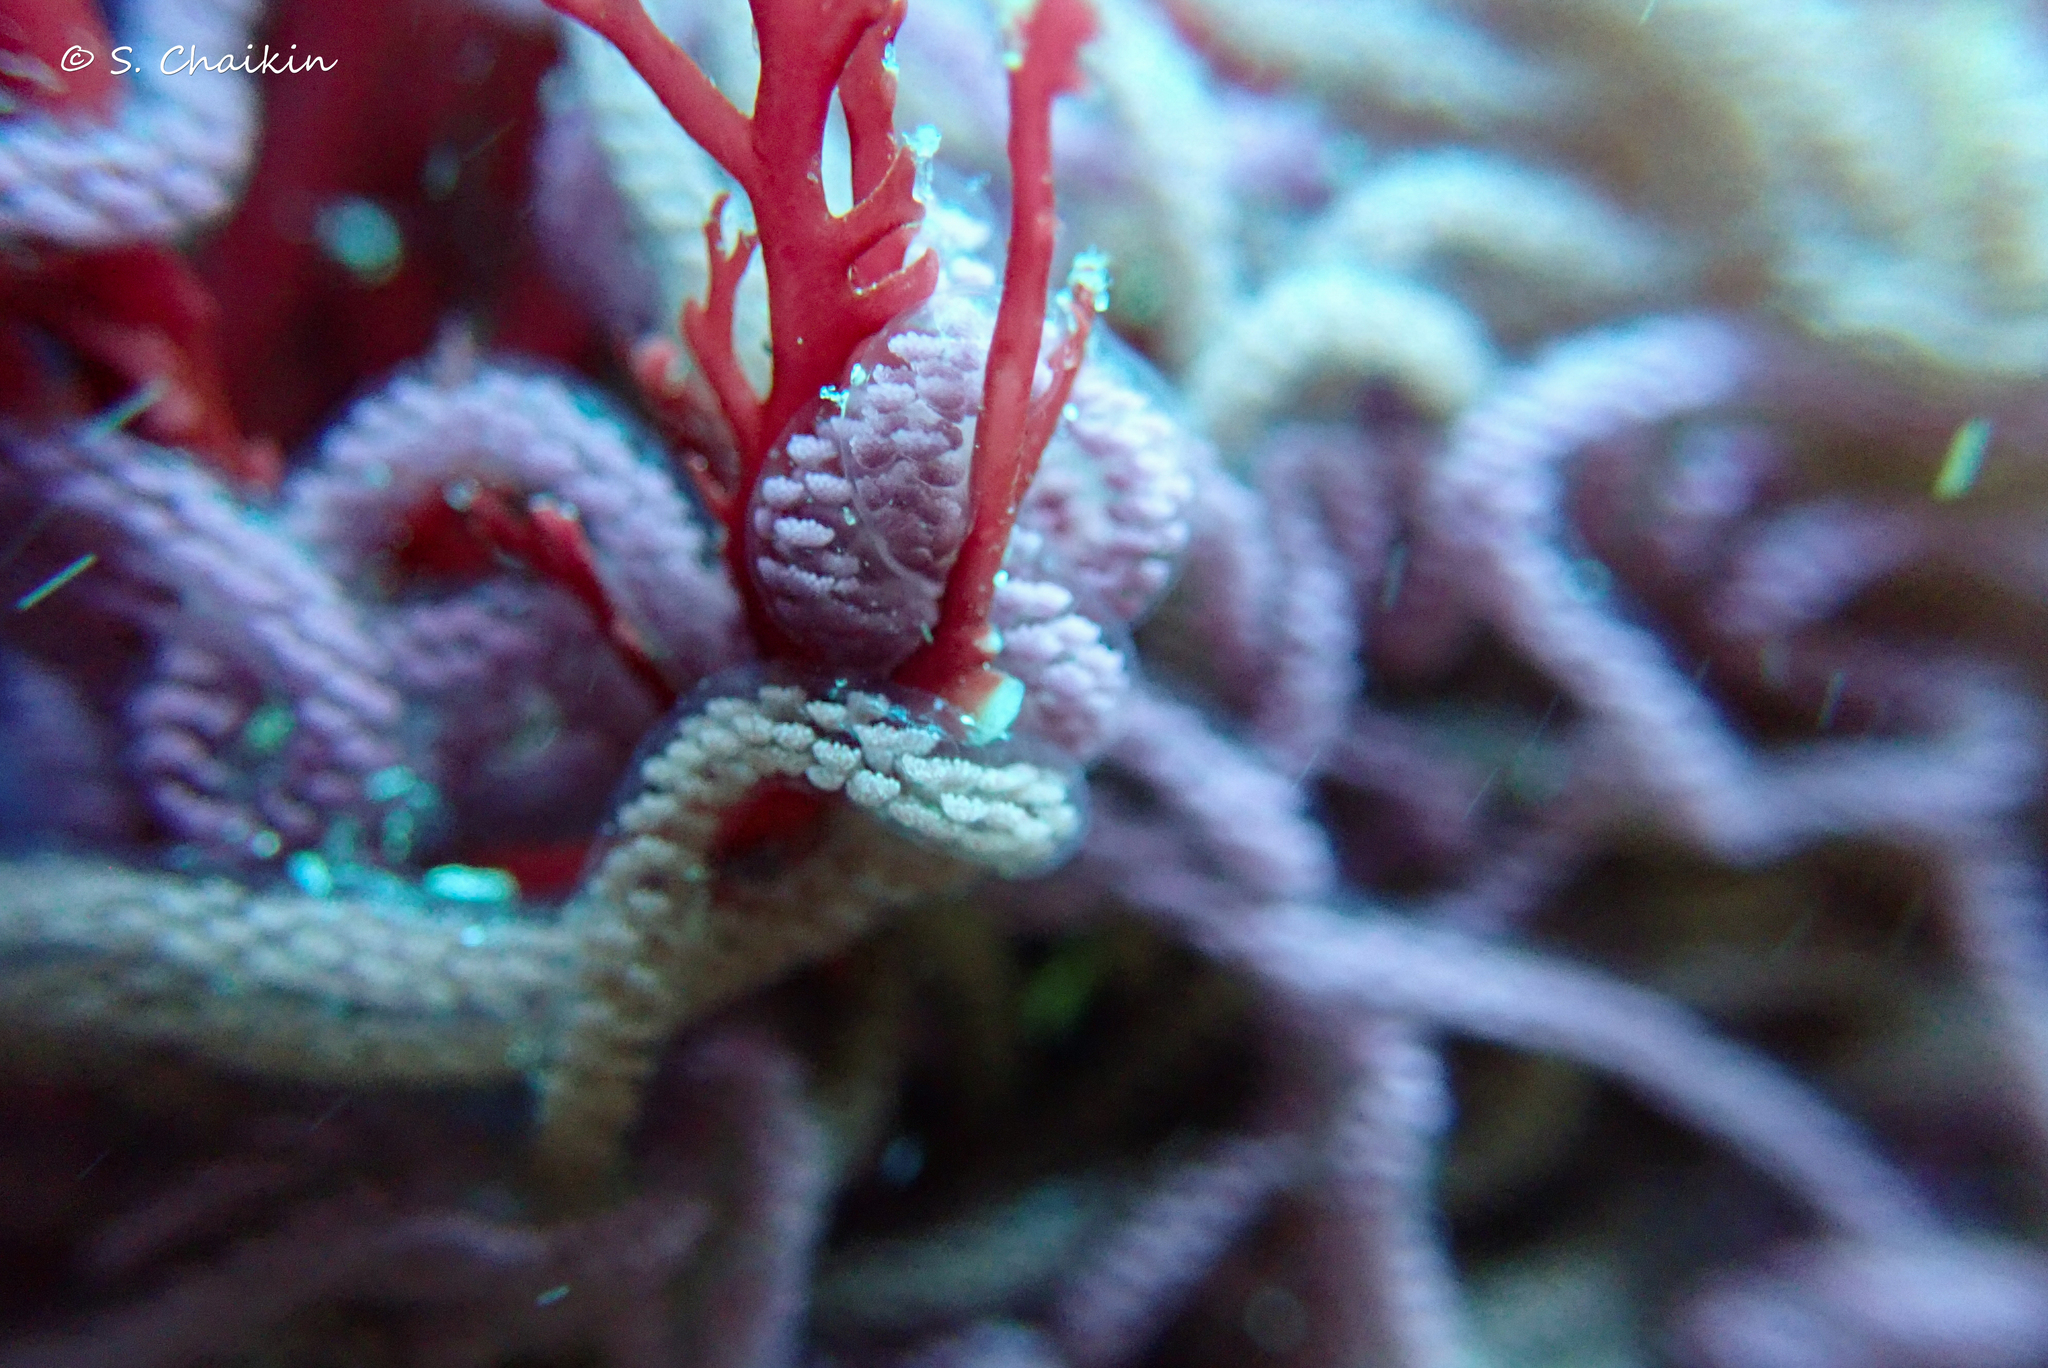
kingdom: Animalia
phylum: Mollusca
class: Gastropoda
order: Aplysiida
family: Aplysiidae
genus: Aplysia
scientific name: Aplysia fasciata
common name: Banded sea hare
